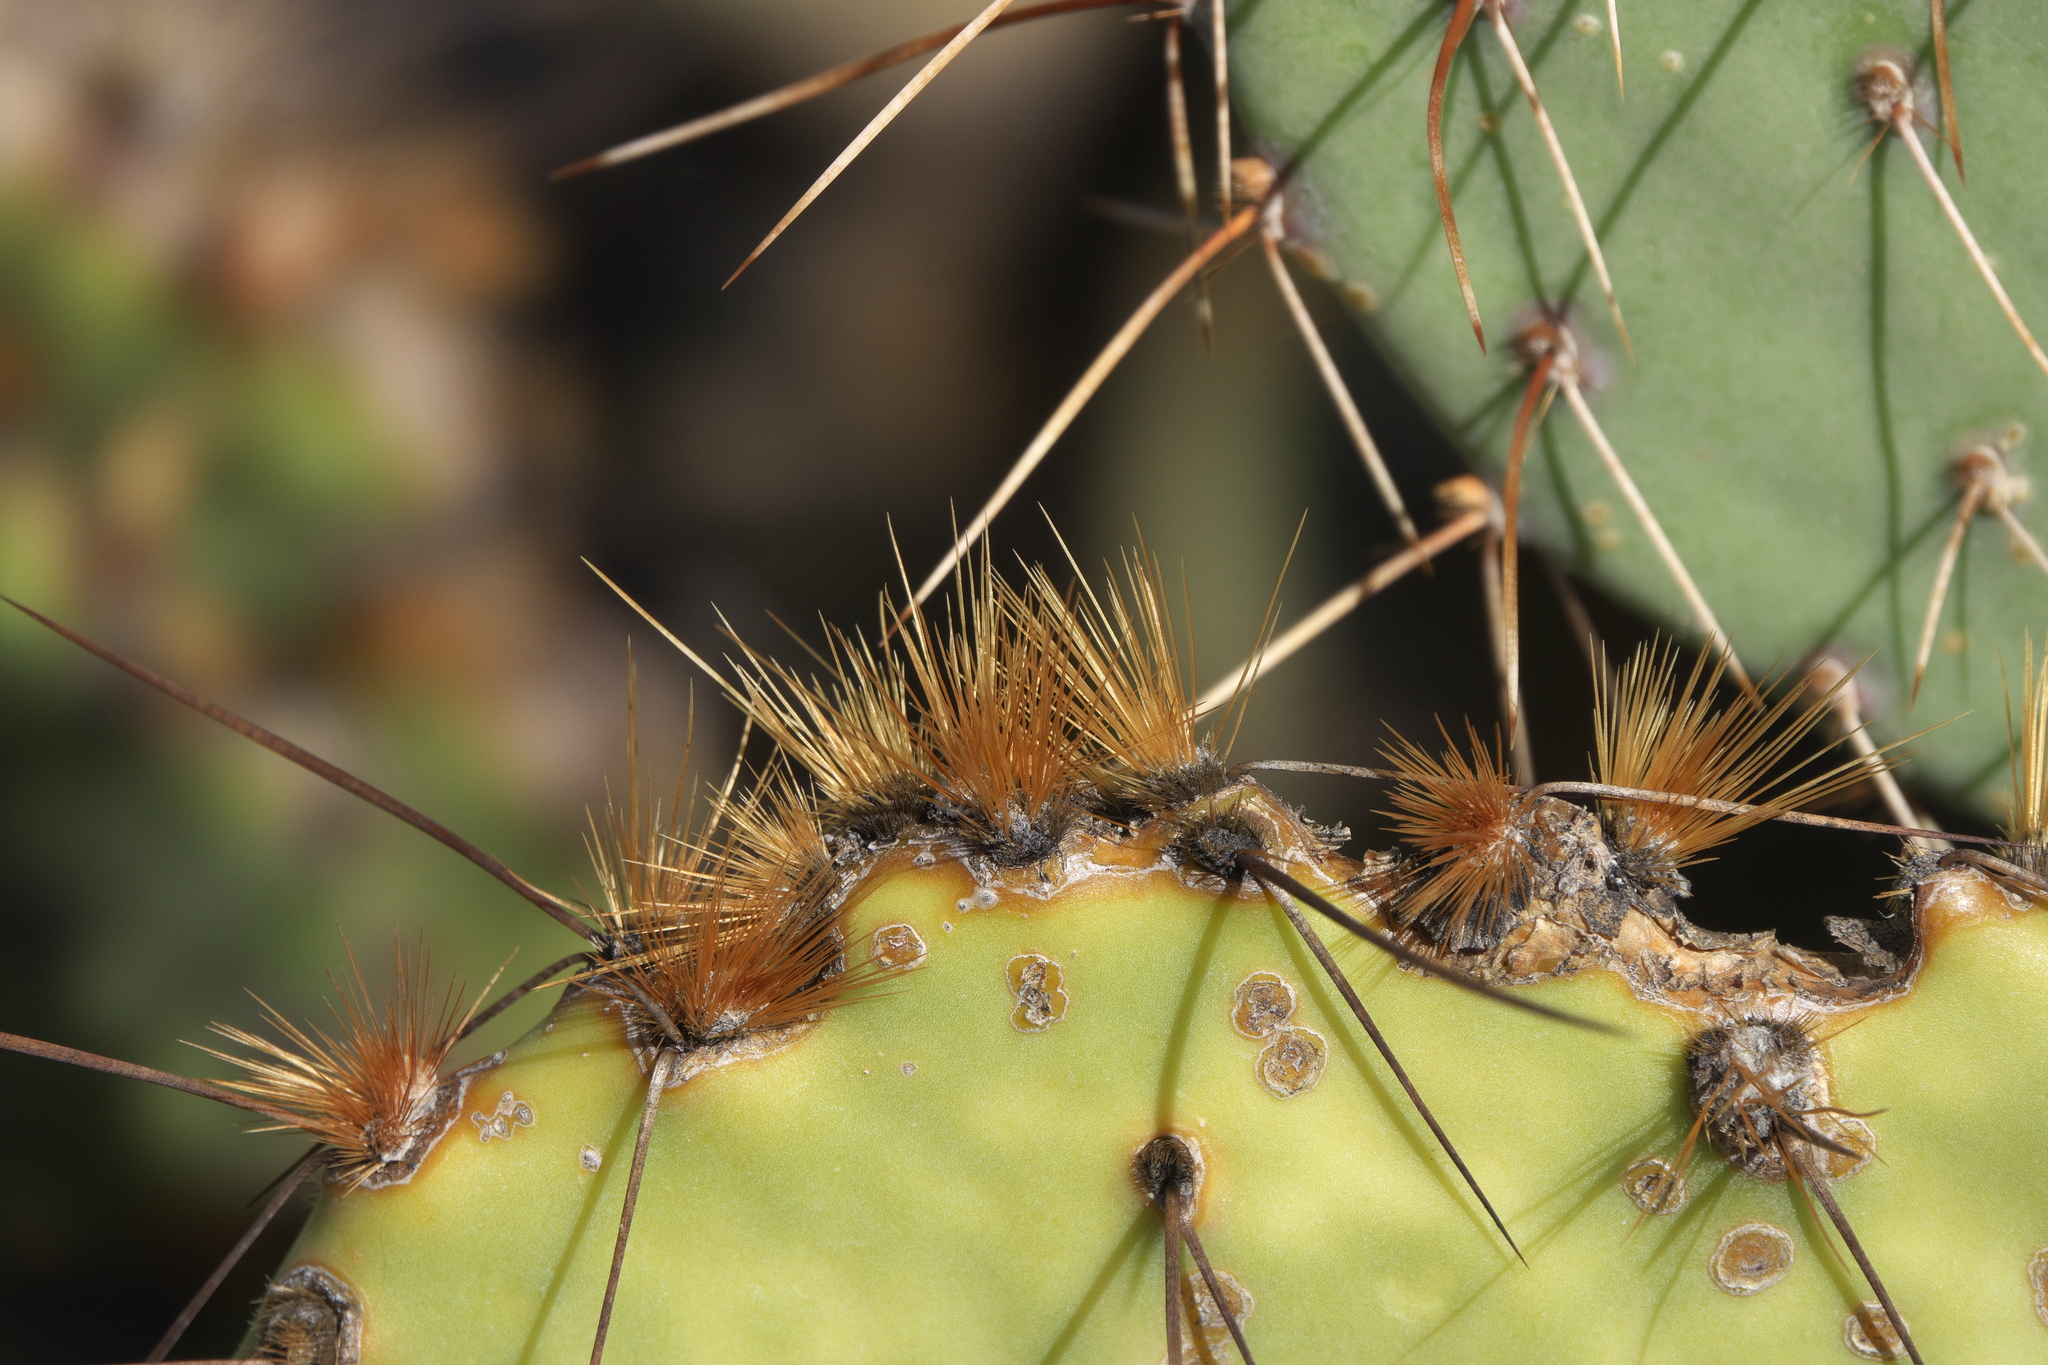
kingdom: Plantae
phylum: Tracheophyta
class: Magnoliopsida
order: Caryophyllales
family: Cactaceae
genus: Opuntia
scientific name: Opuntia engelmannii
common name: Cactus-apple
